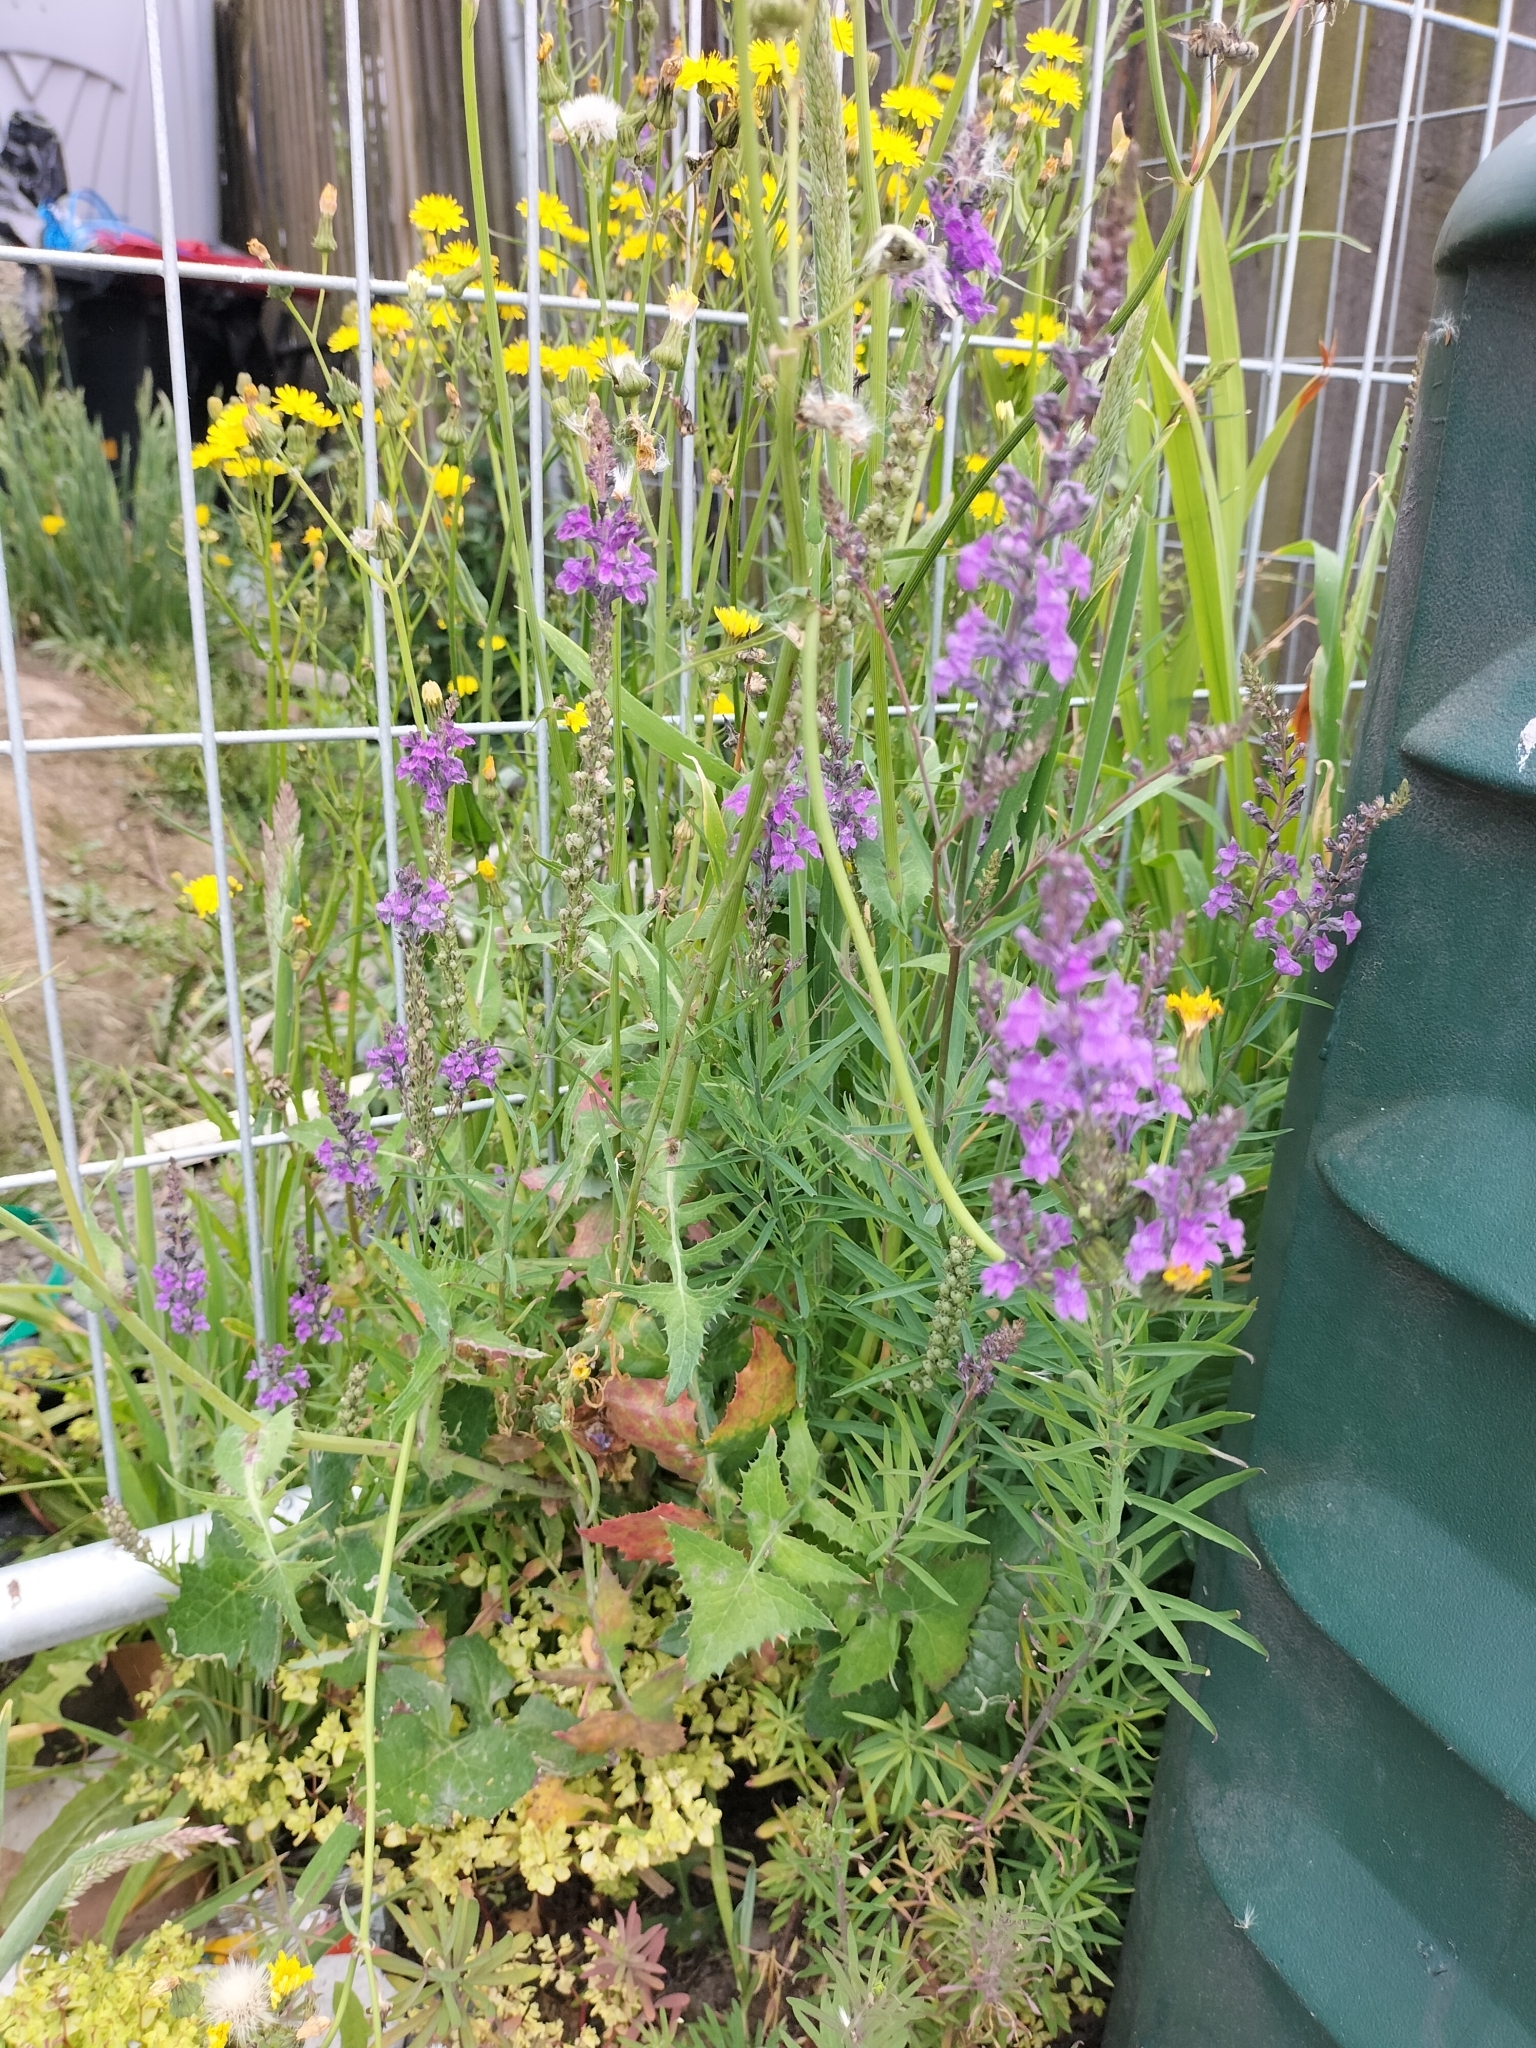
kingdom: Plantae
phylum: Tracheophyta
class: Magnoliopsida
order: Lamiales
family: Plantaginaceae
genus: Linaria
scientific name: Linaria purpurea
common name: Purple toadflax
